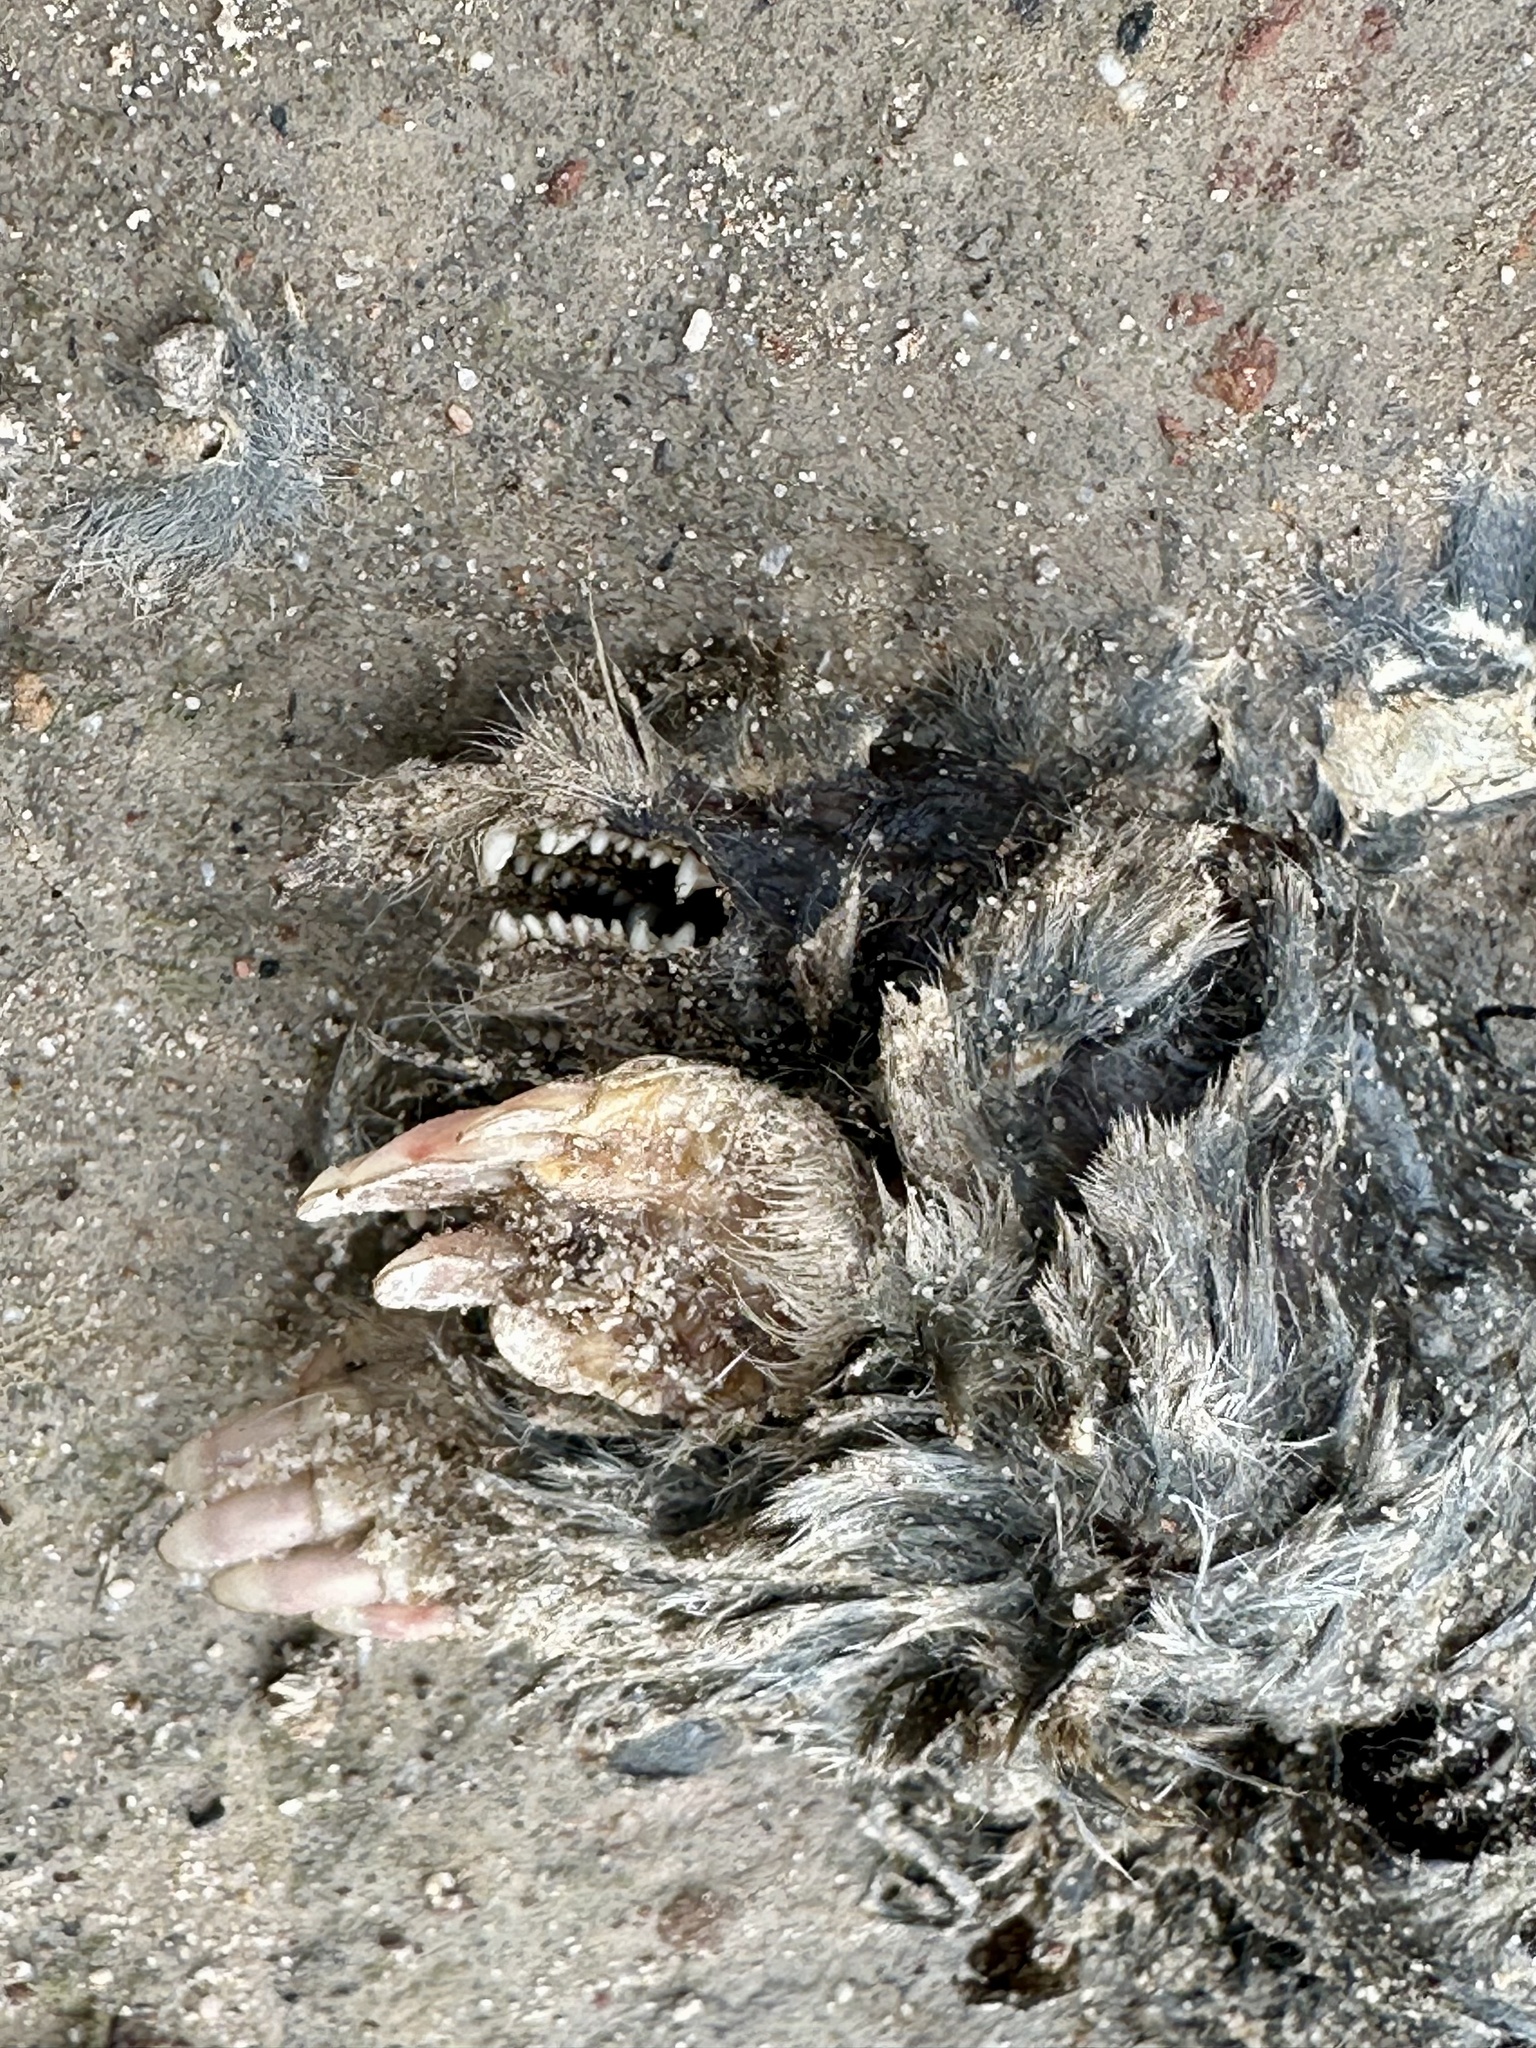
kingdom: Animalia
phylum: Chordata
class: Mammalia
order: Soricomorpha
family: Talpidae
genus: Scapanus
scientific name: Scapanus latimanus
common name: Broad-footed mole
